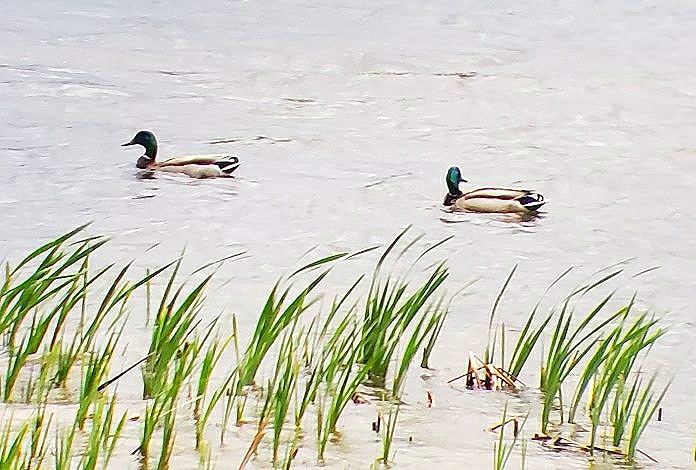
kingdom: Animalia
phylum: Chordata
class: Aves
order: Anseriformes
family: Anatidae
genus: Anas
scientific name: Anas platyrhynchos
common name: Mallard
